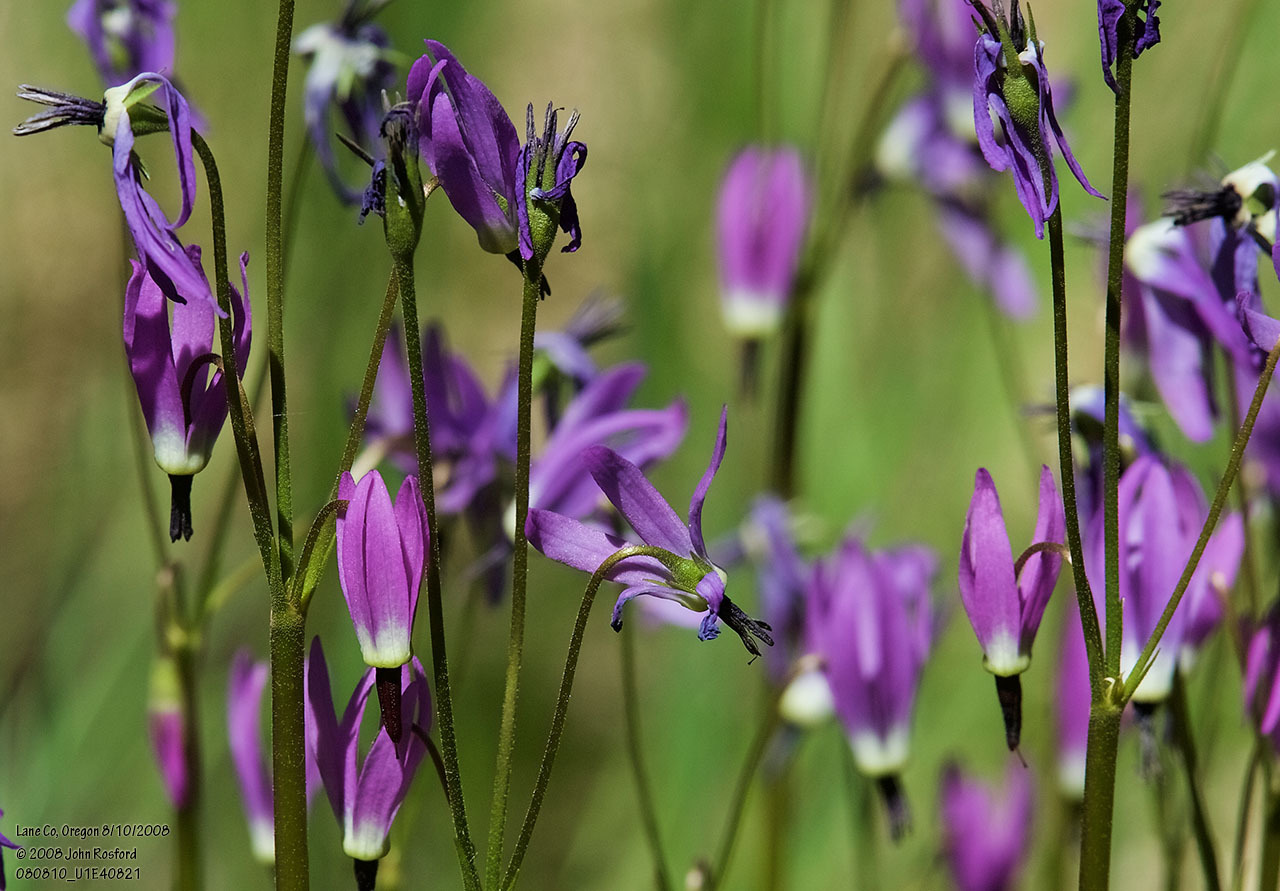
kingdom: Plantae
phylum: Tracheophyta
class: Magnoliopsida
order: Ericales
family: Primulaceae
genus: Dodecatheon
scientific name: Dodecatheon jeffreyanum
